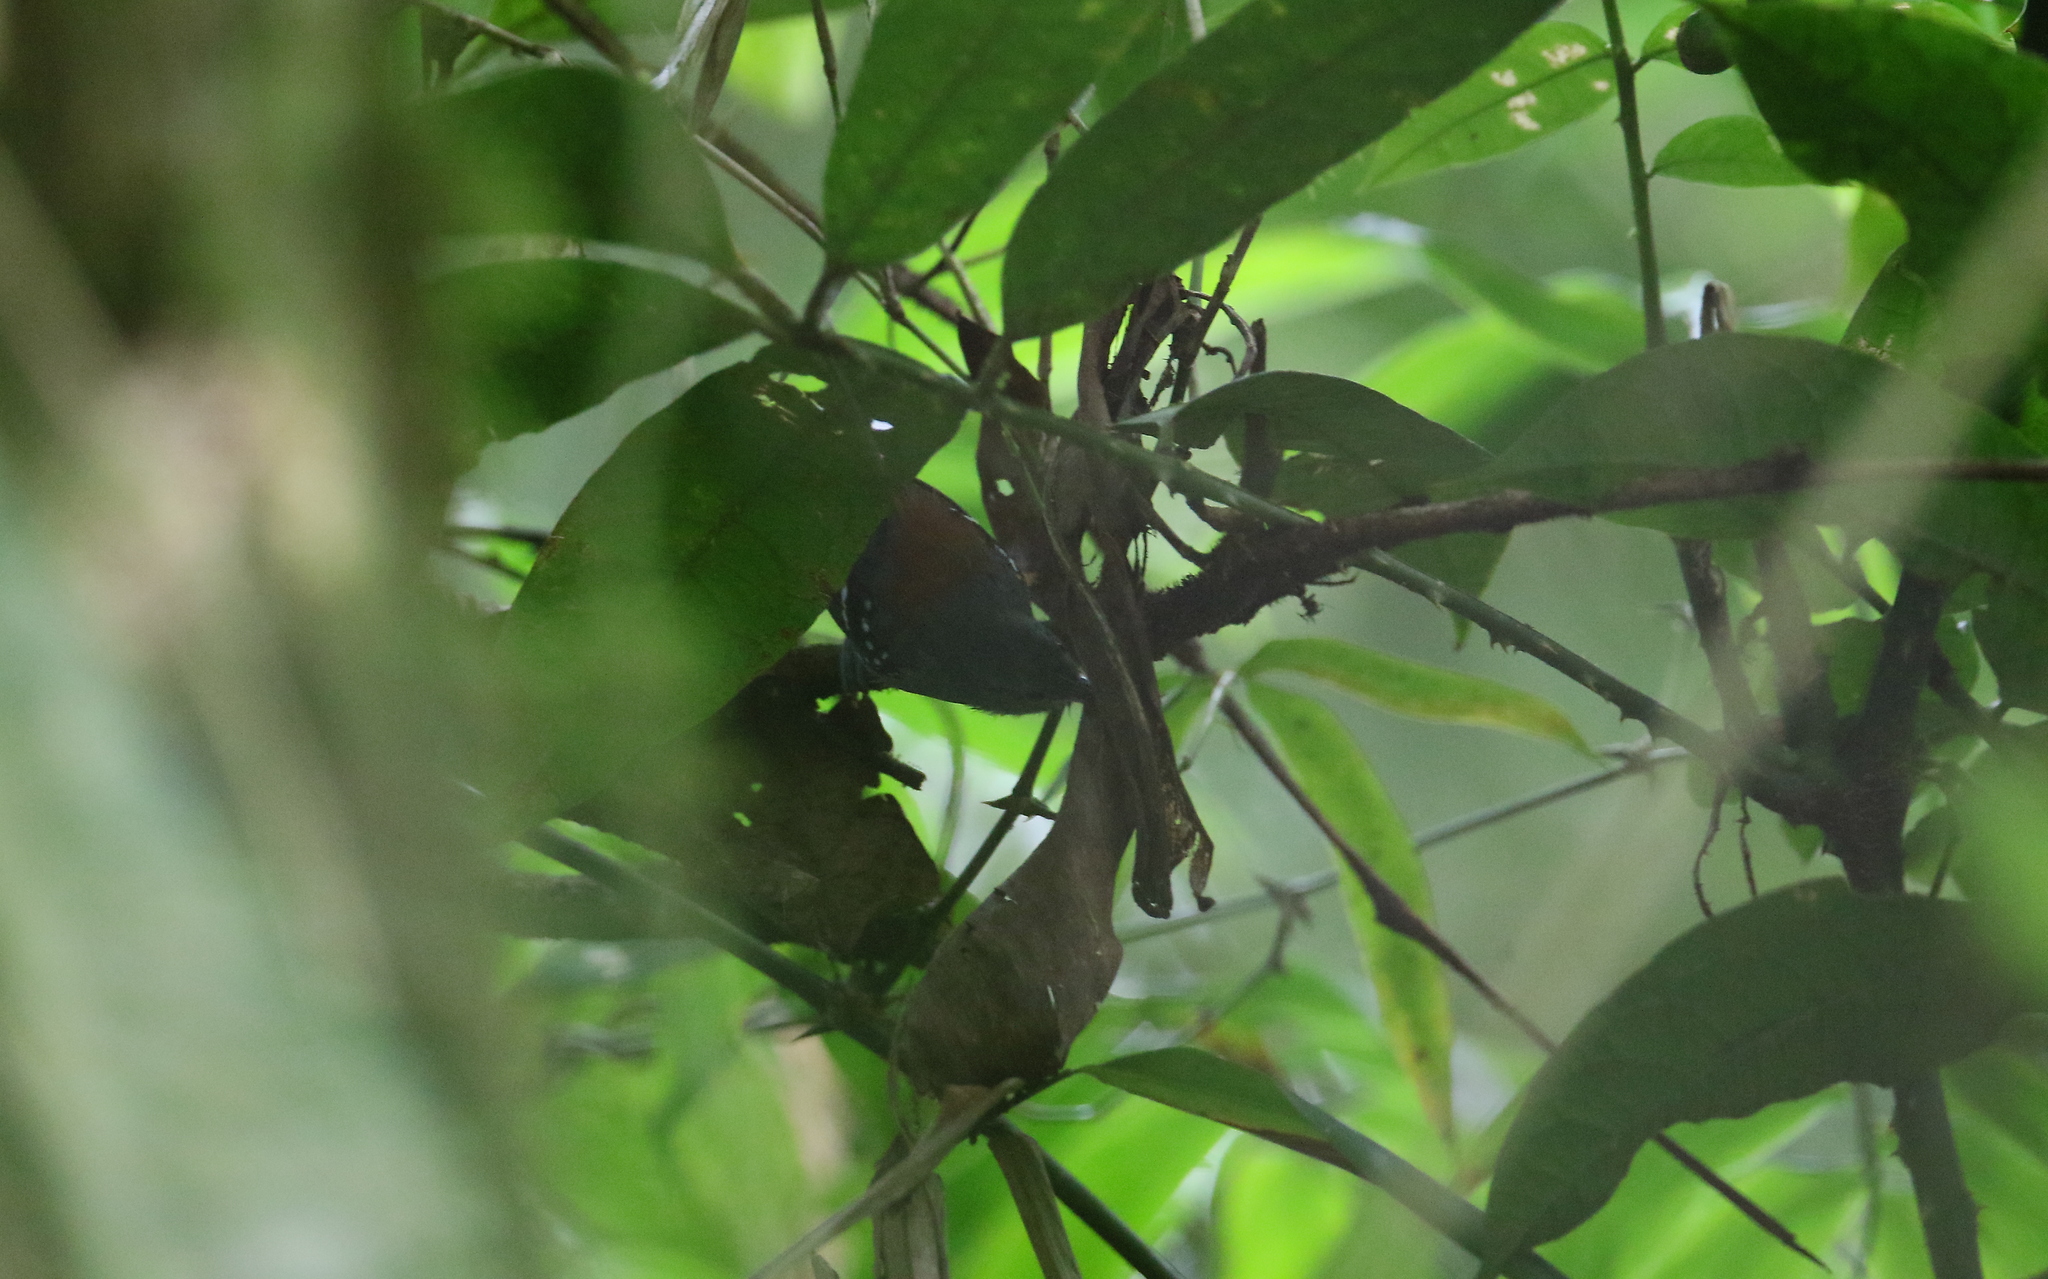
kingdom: Animalia
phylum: Chordata
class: Aves
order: Passeriformes
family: Thamnophilidae
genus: Epinecrophylla
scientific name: Epinecrophylla ornata
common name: Ornate antwren
